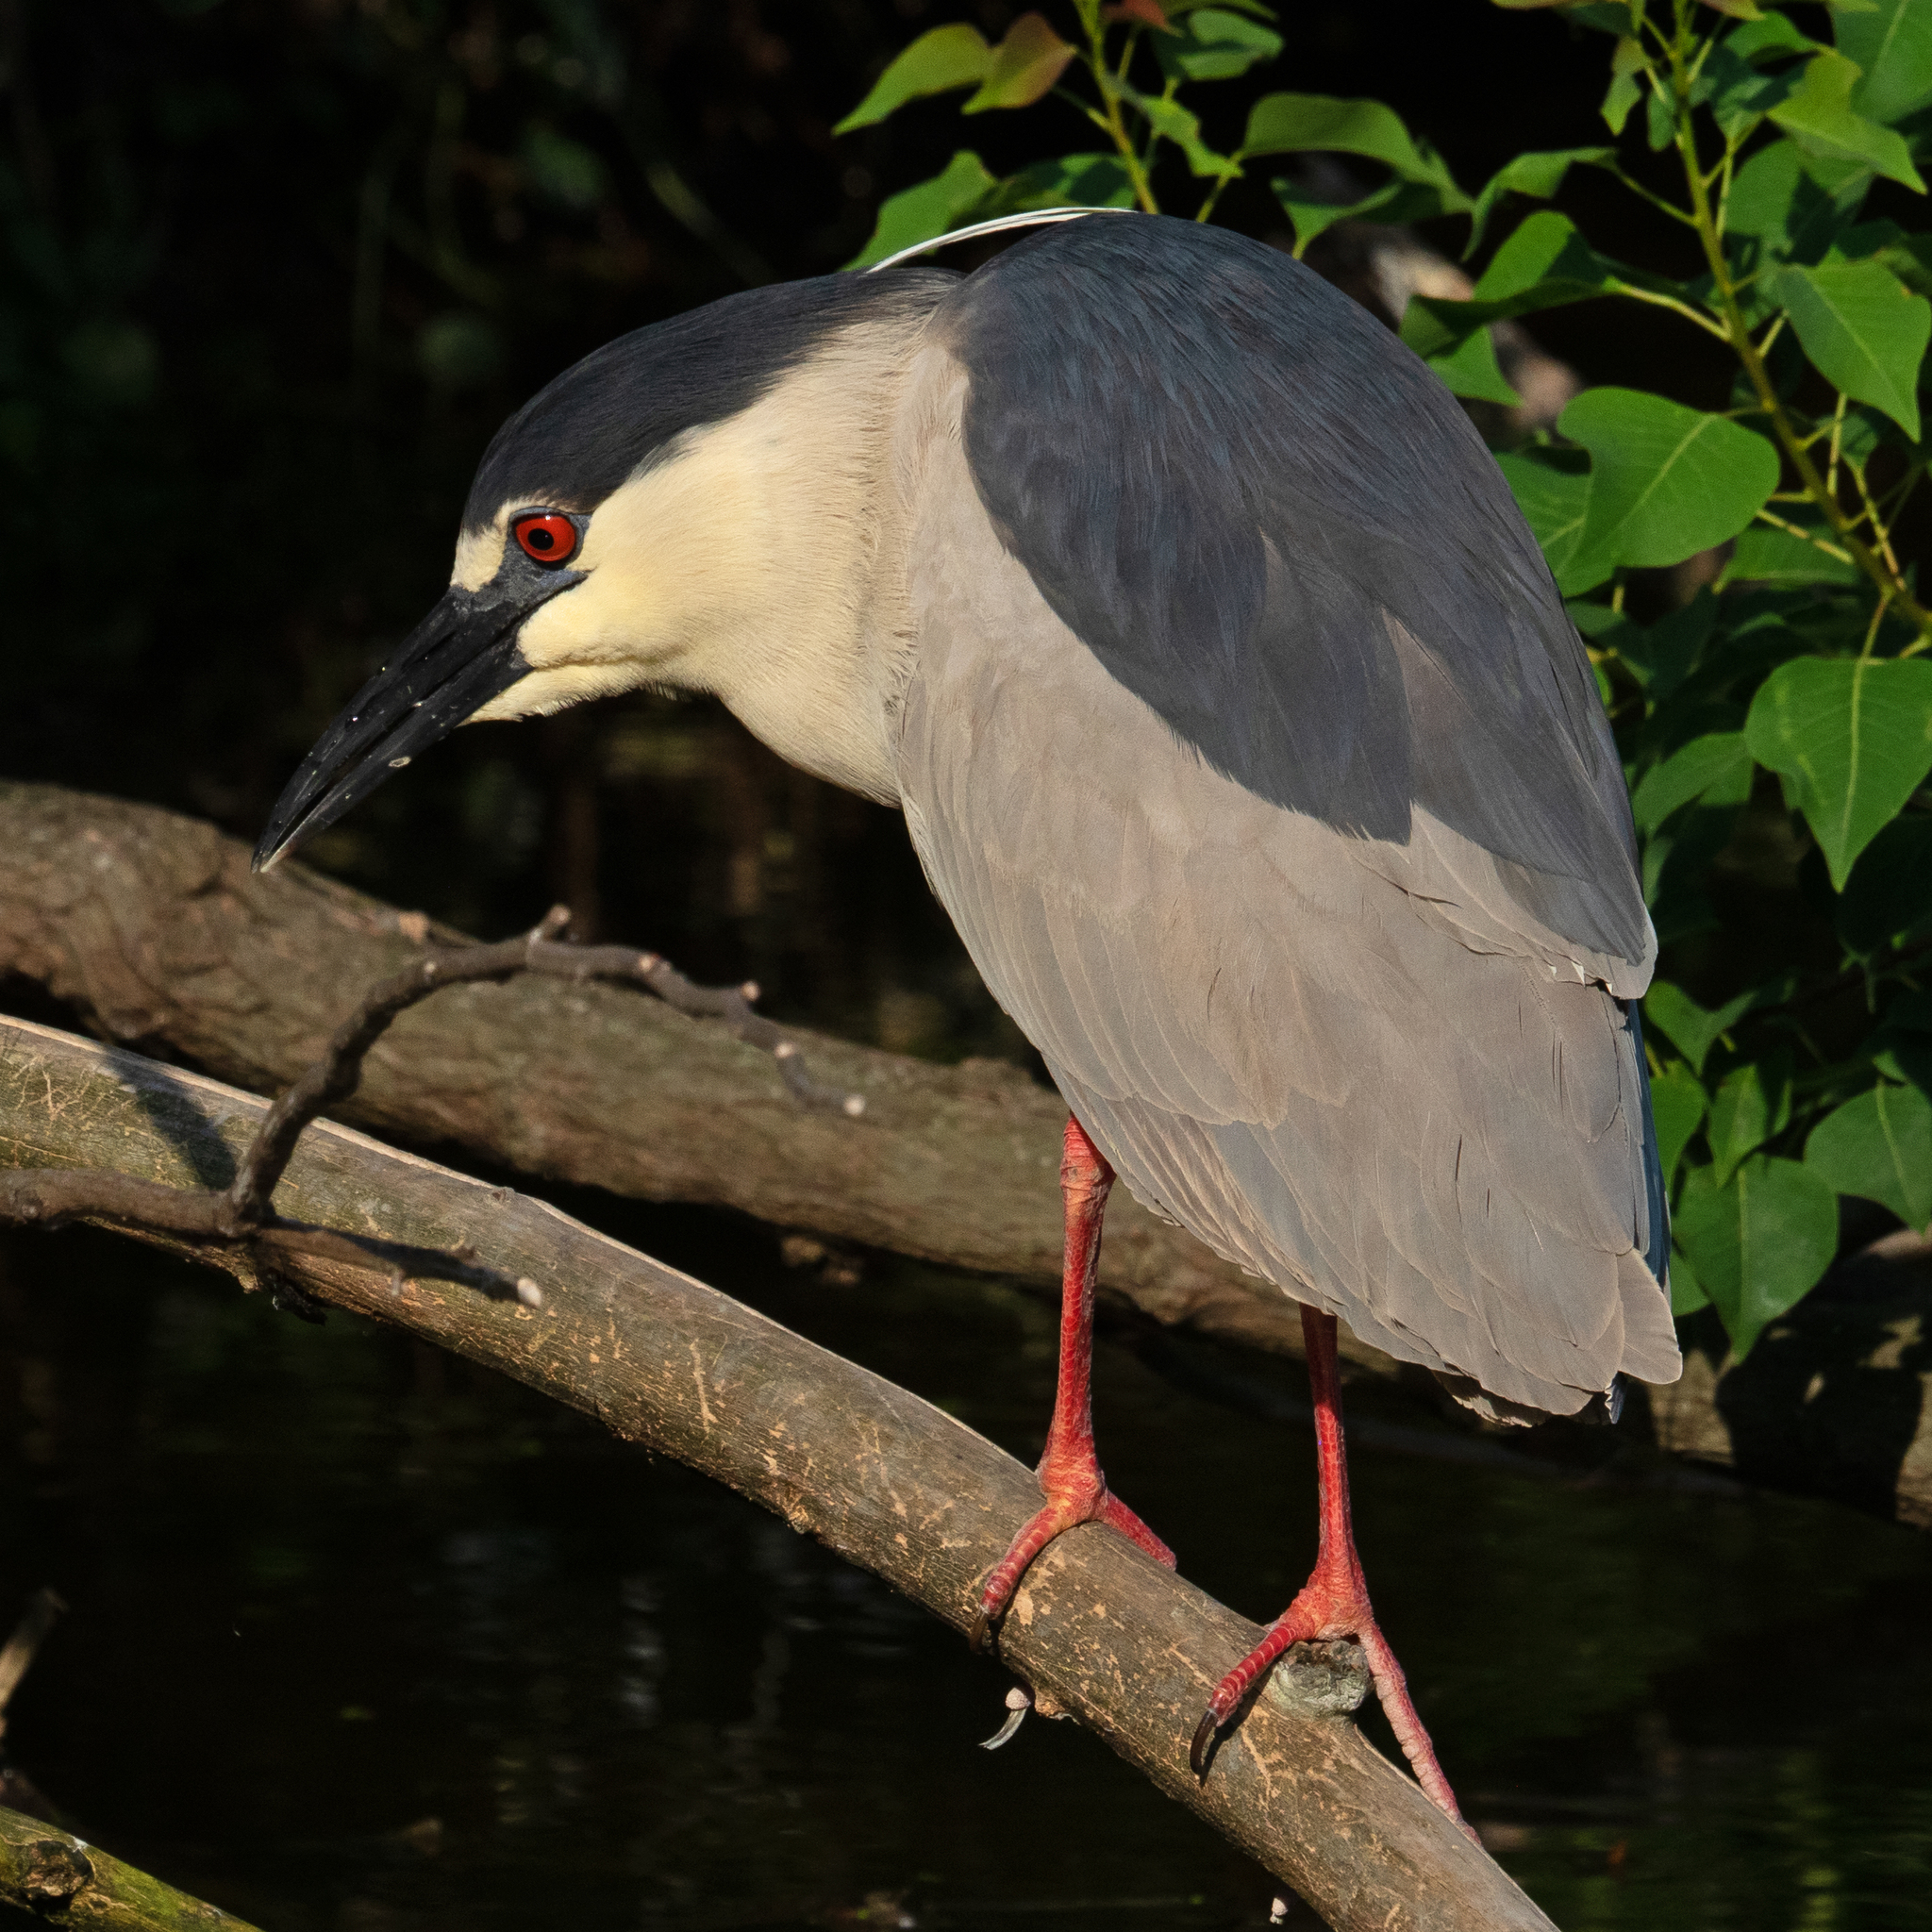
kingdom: Animalia
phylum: Chordata
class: Aves
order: Pelecaniformes
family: Ardeidae
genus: Nycticorax
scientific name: Nycticorax nycticorax
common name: Black-crowned night heron
